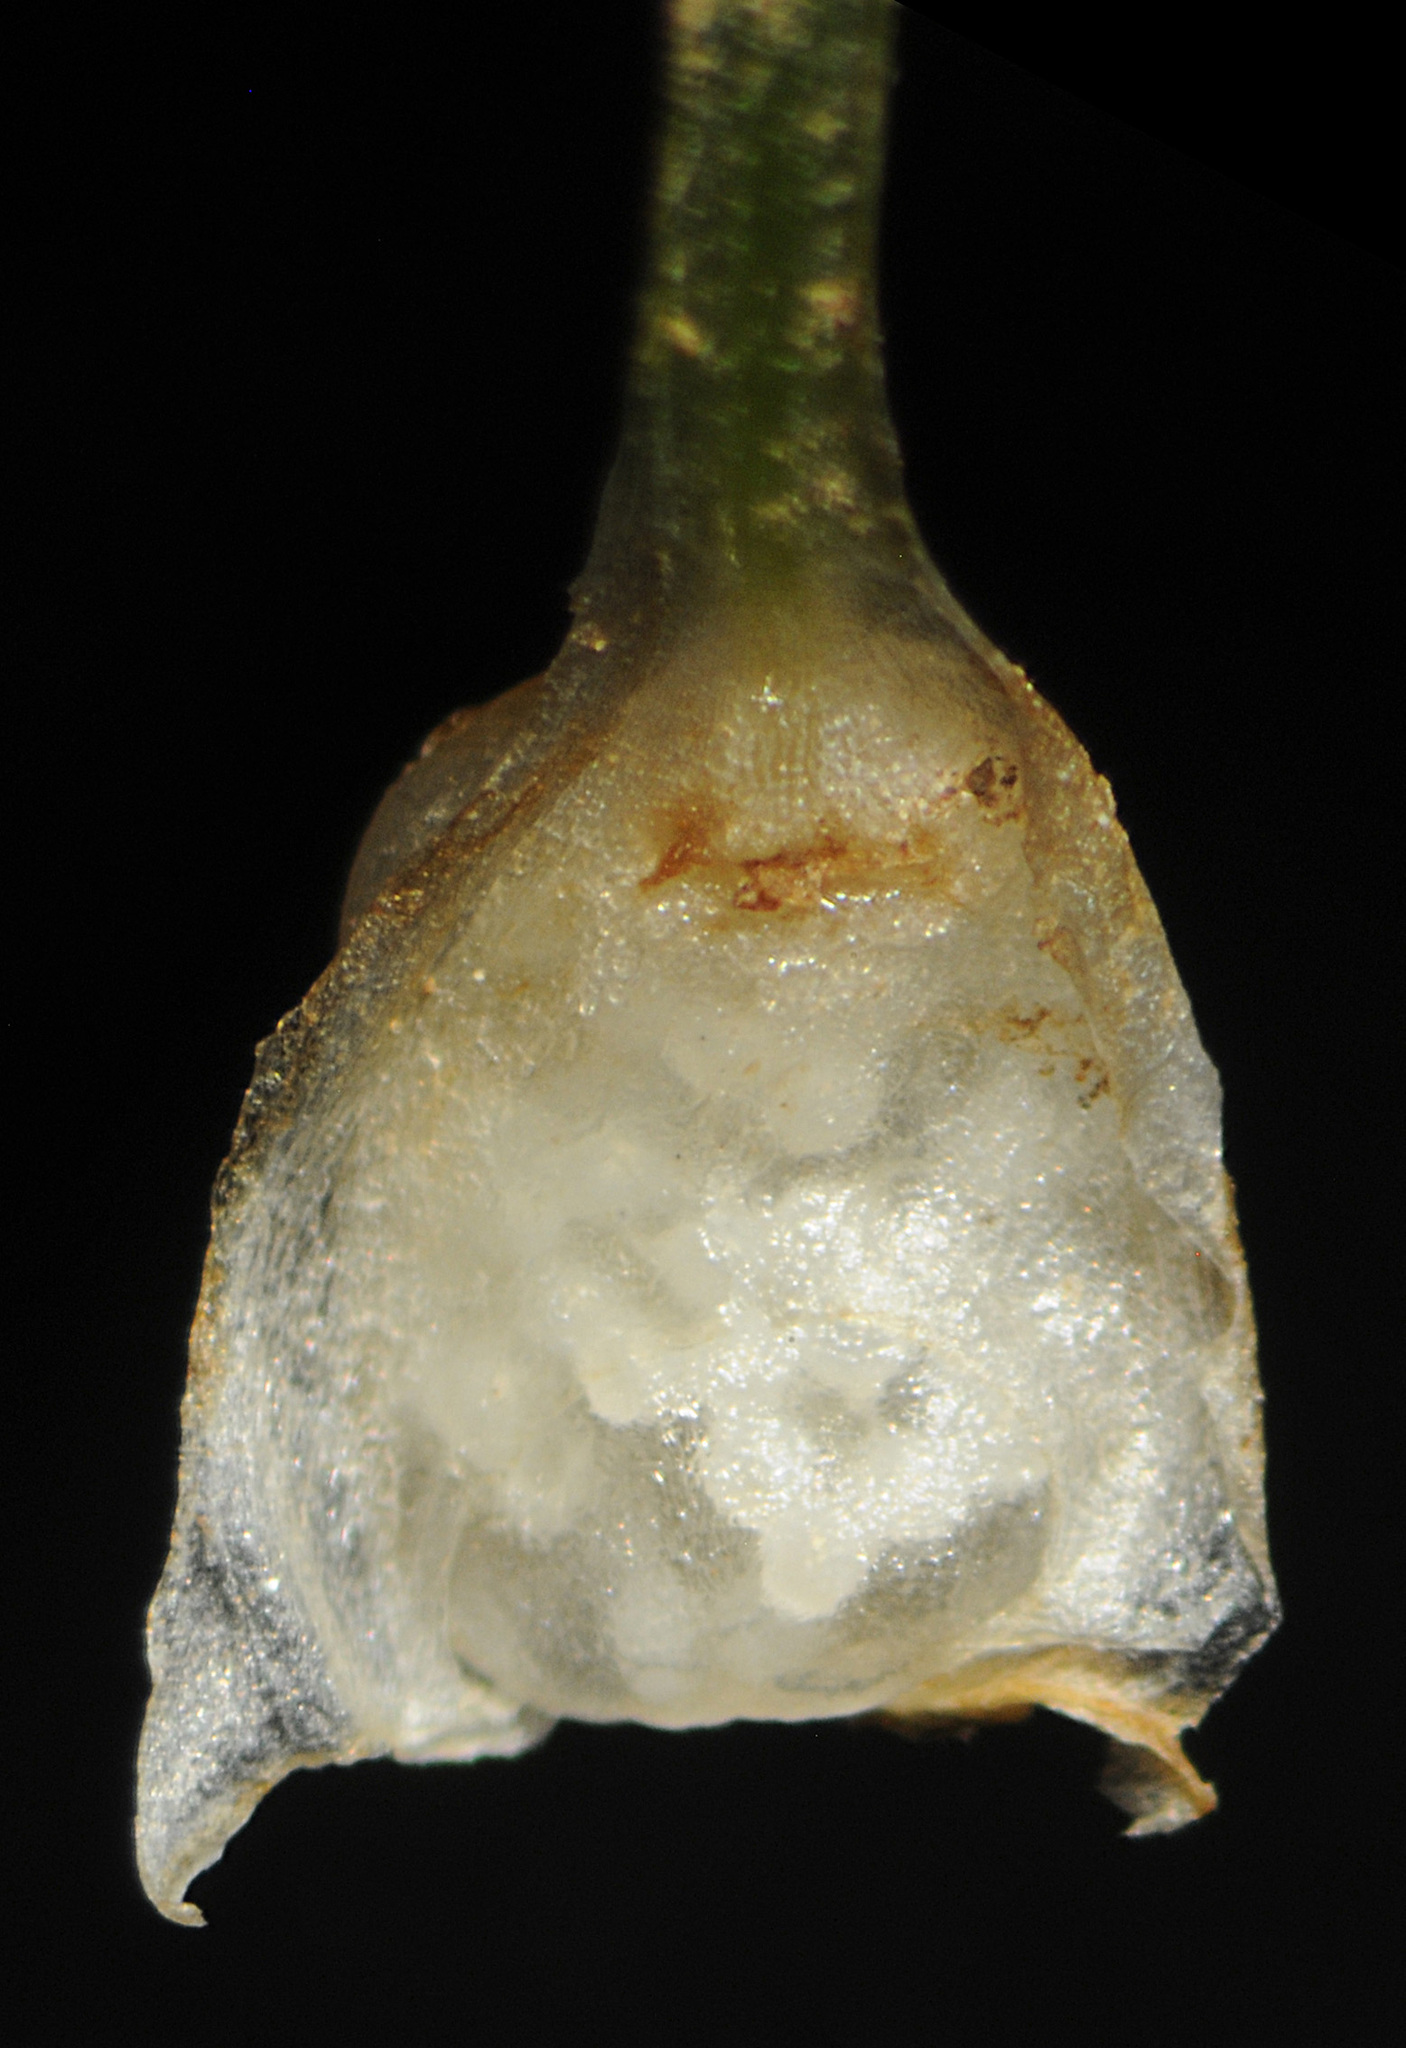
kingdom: Plantae
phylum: Tracheophyta
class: Lycopodiopsida
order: Isoetales
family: Isoetaceae
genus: Isoetes
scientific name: Isoetes minima
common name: Midget quillwort
